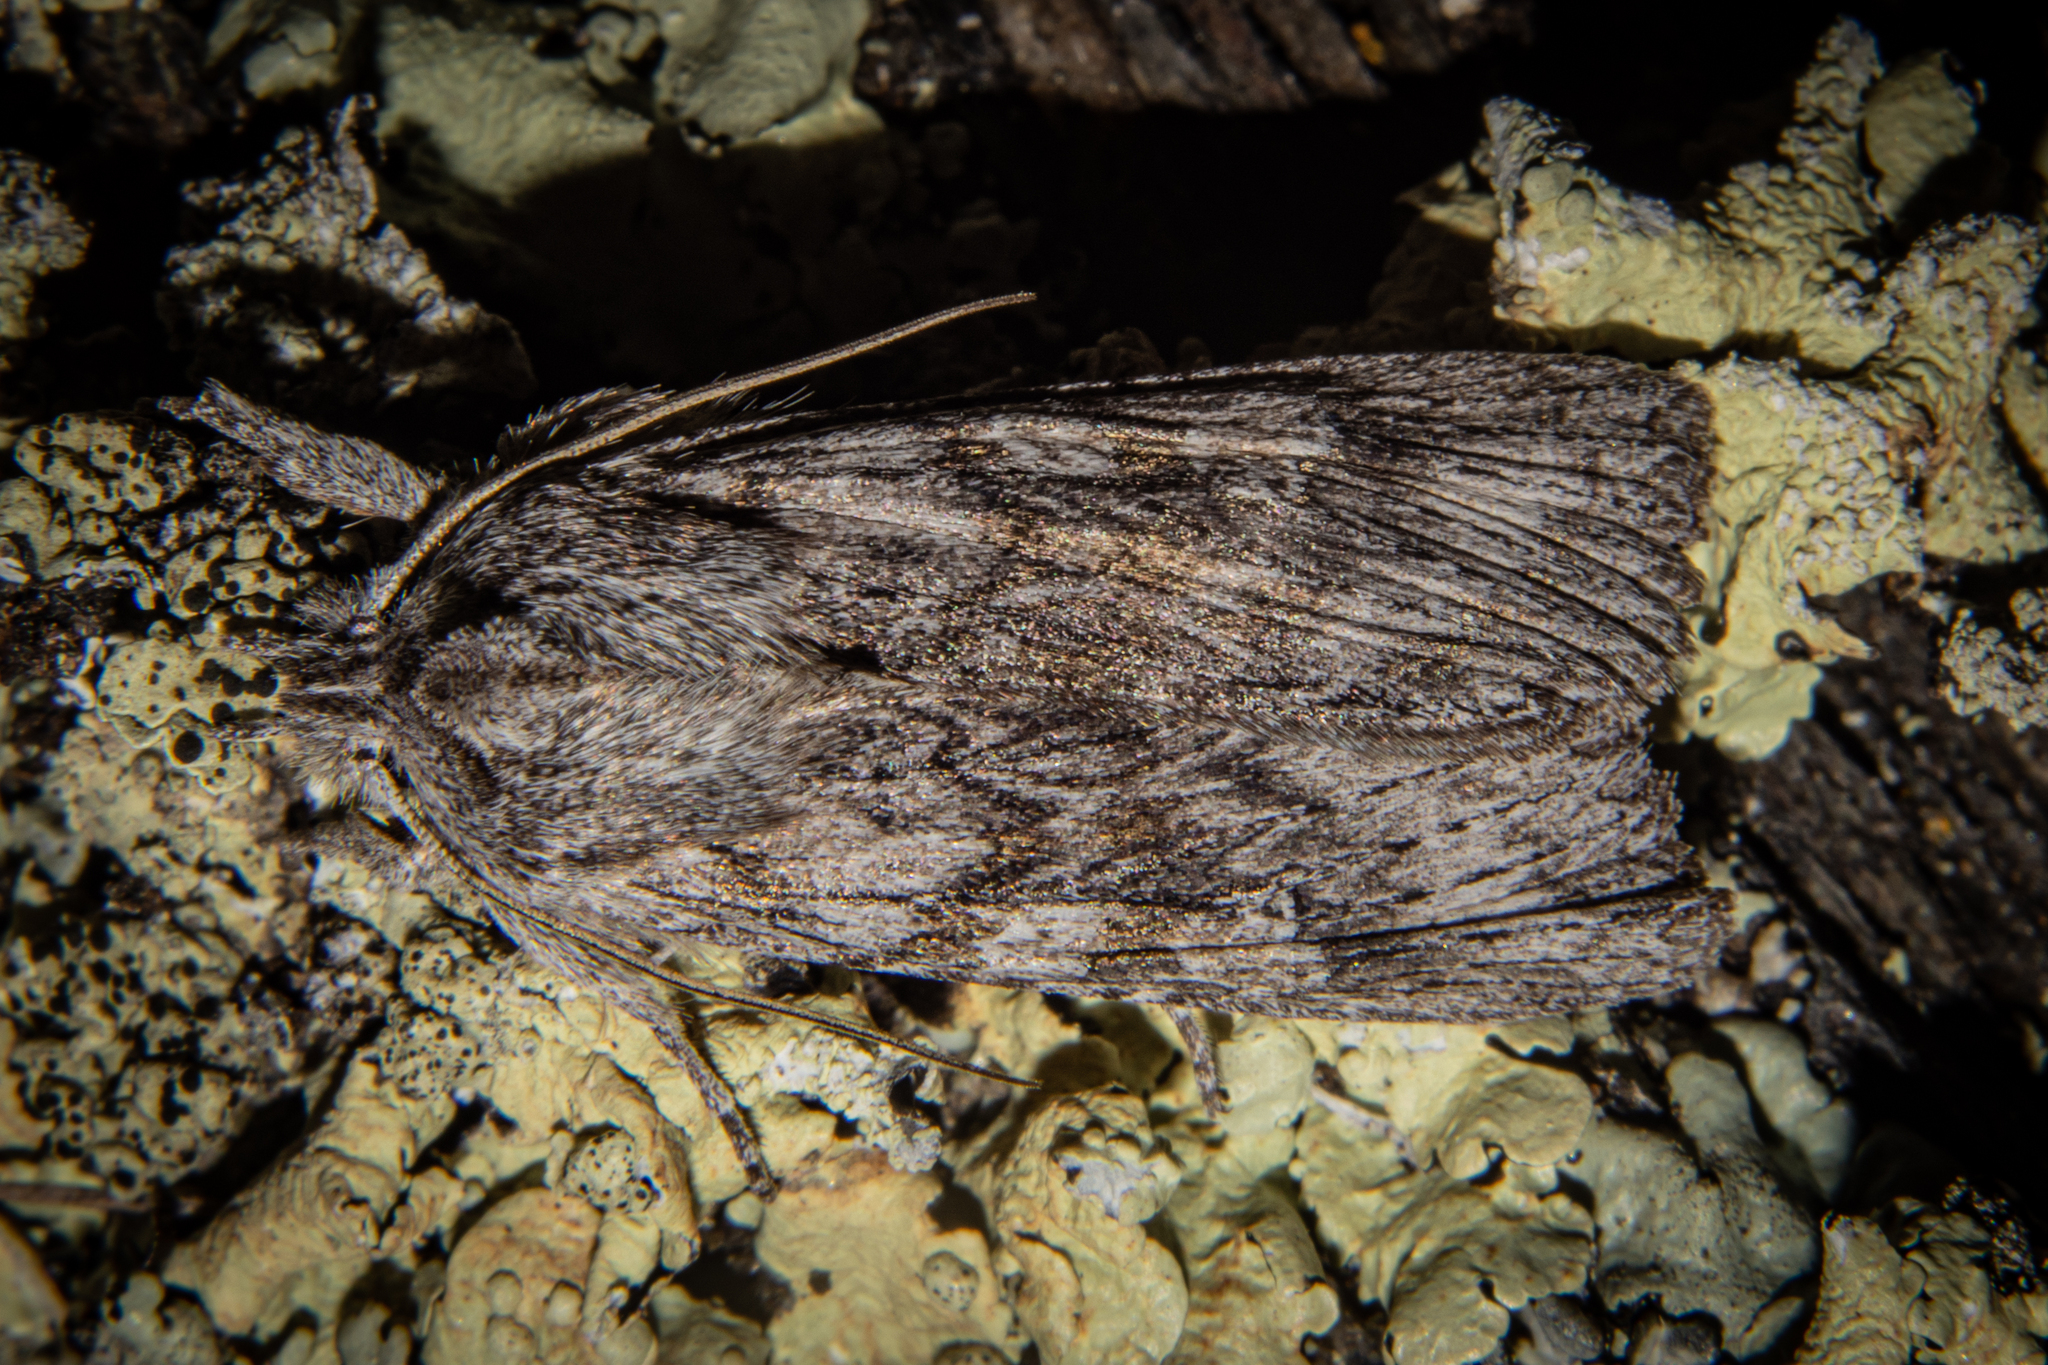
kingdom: Animalia
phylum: Arthropoda
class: Insecta
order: Lepidoptera
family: Noctuidae
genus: Physetica
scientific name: Physetica phricias
